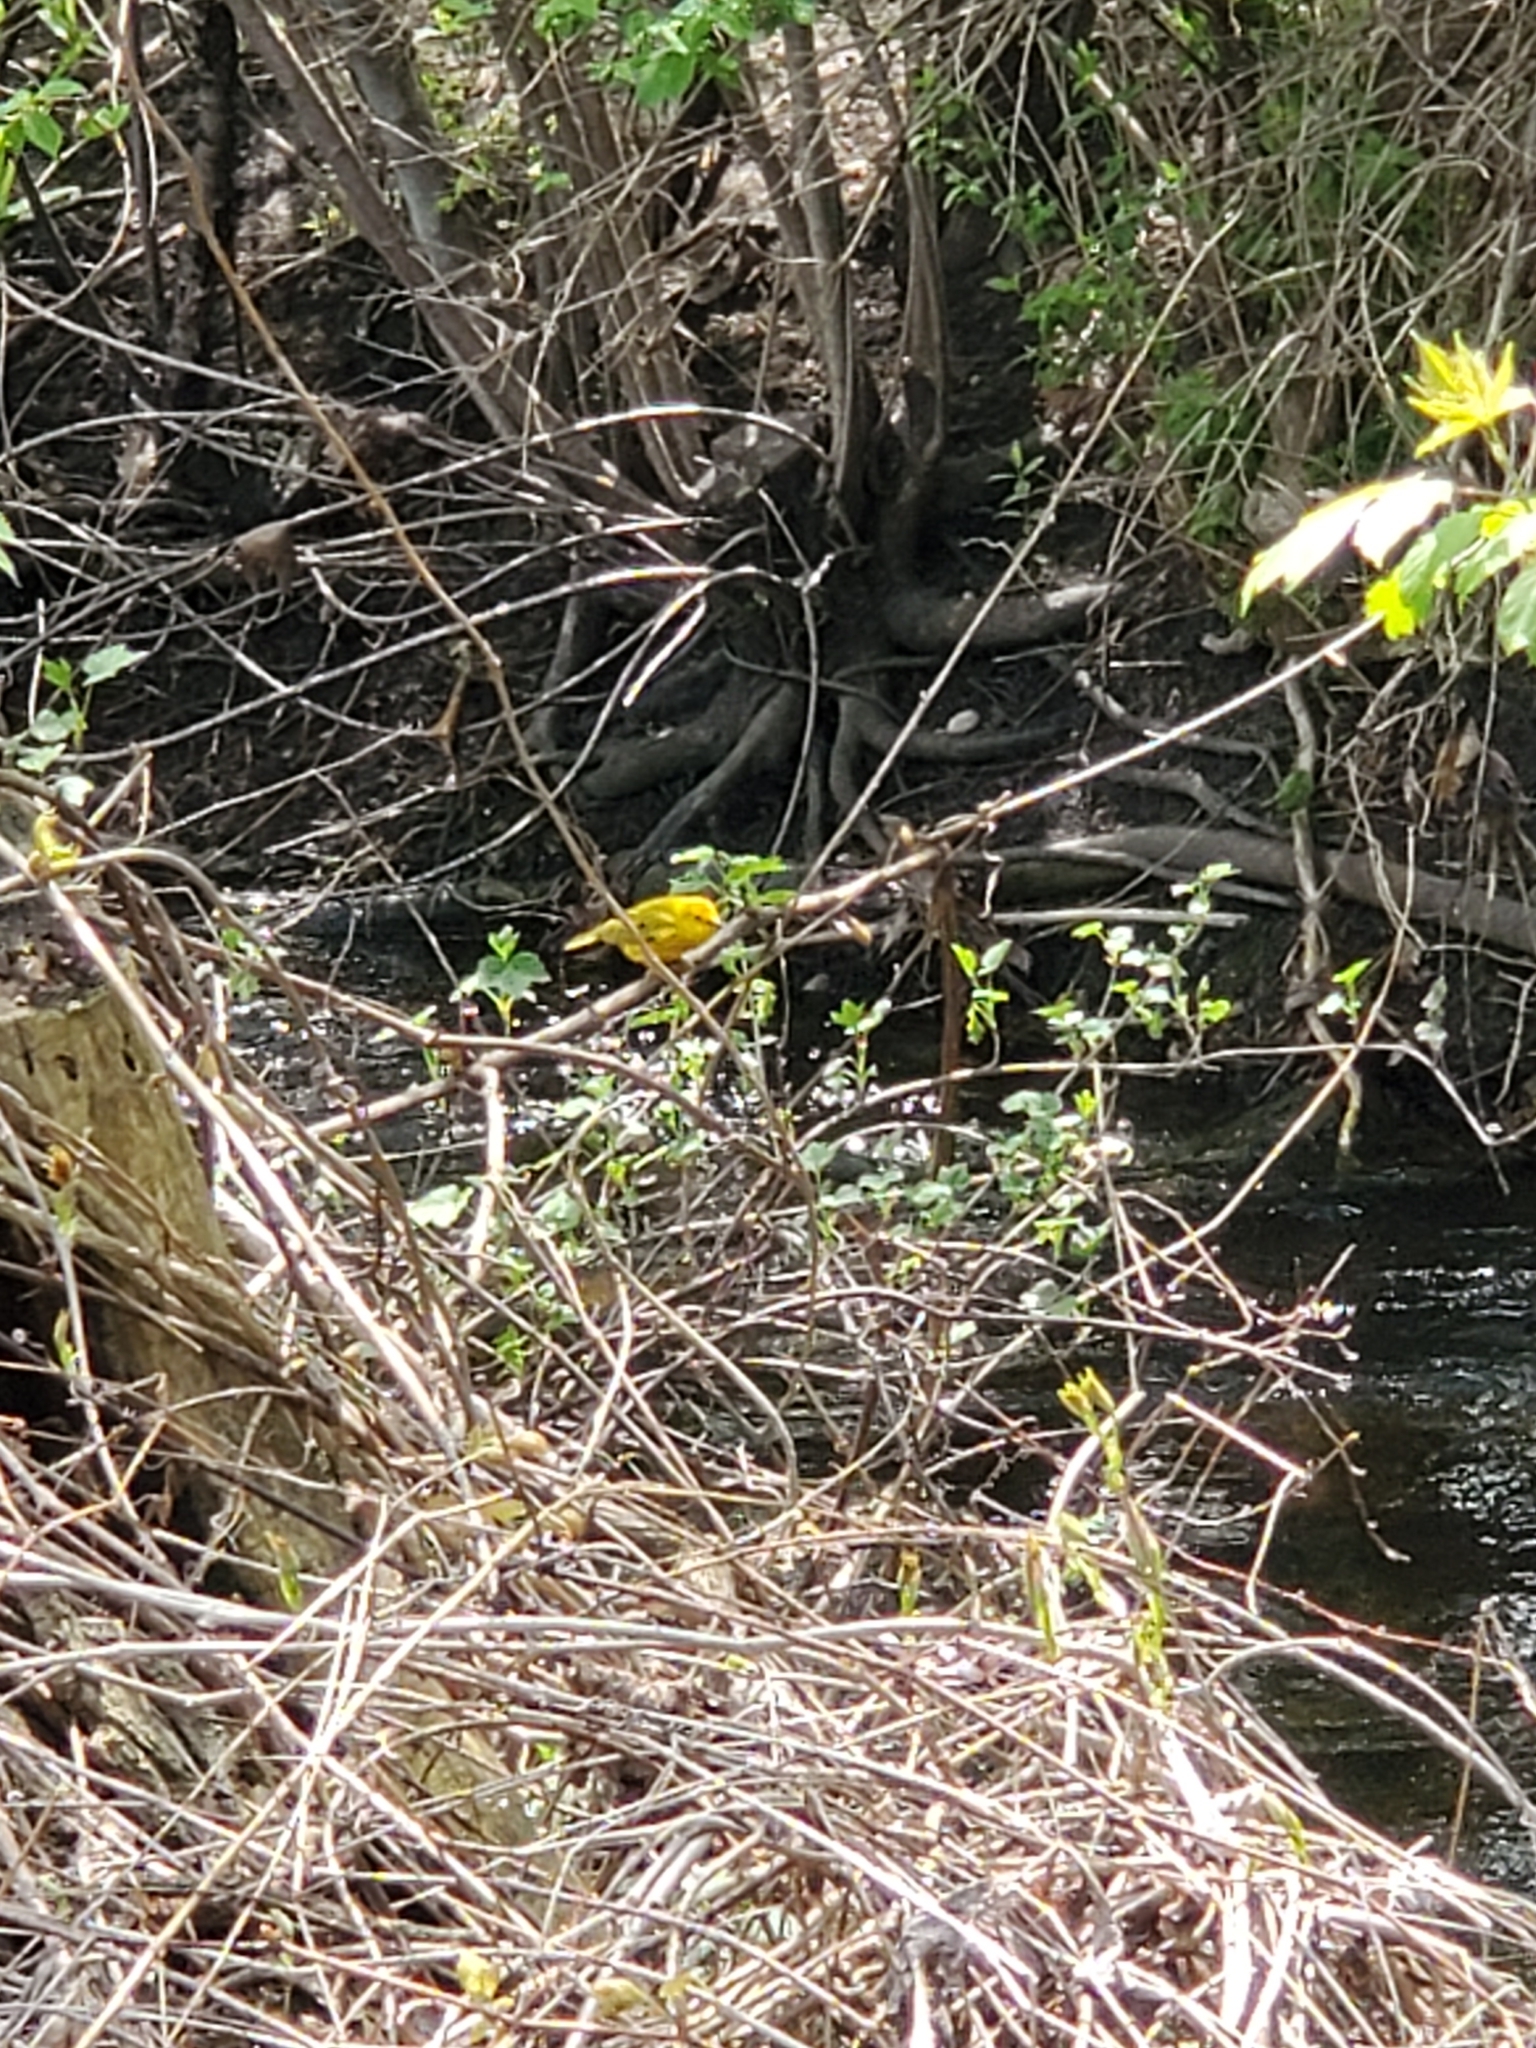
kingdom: Animalia
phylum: Chordata
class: Aves
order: Passeriformes
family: Parulidae
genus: Setophaga
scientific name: Setophaga petechia
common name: Yellow warbler
